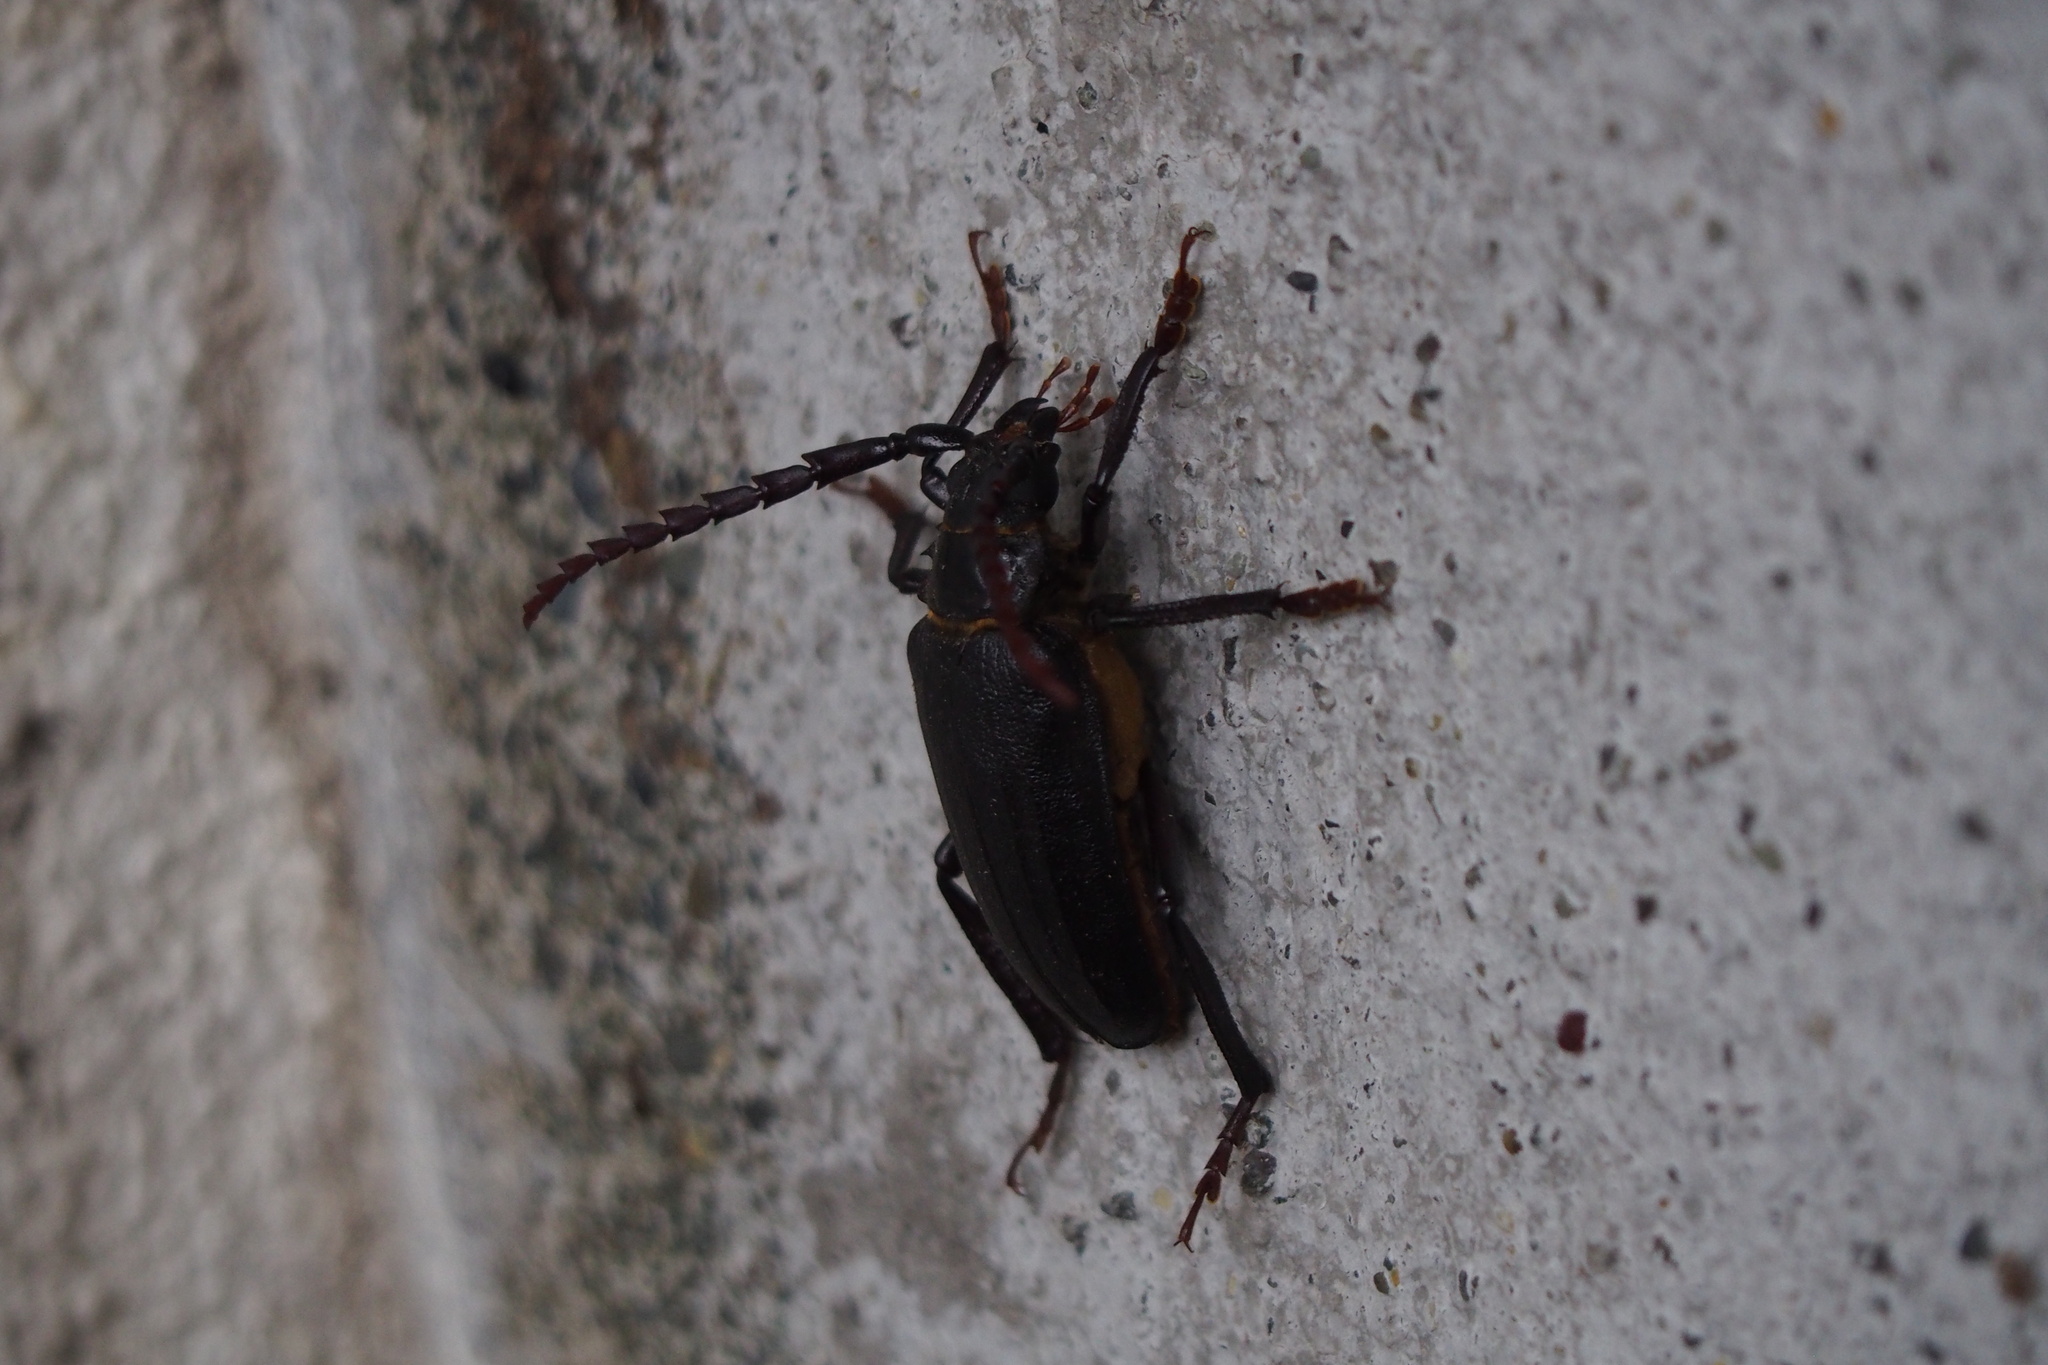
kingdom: Animalia
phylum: Arthropoda
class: Insecta
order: Coleoptera
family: Cerambycidae
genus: Prionus
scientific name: Prionus insularis
